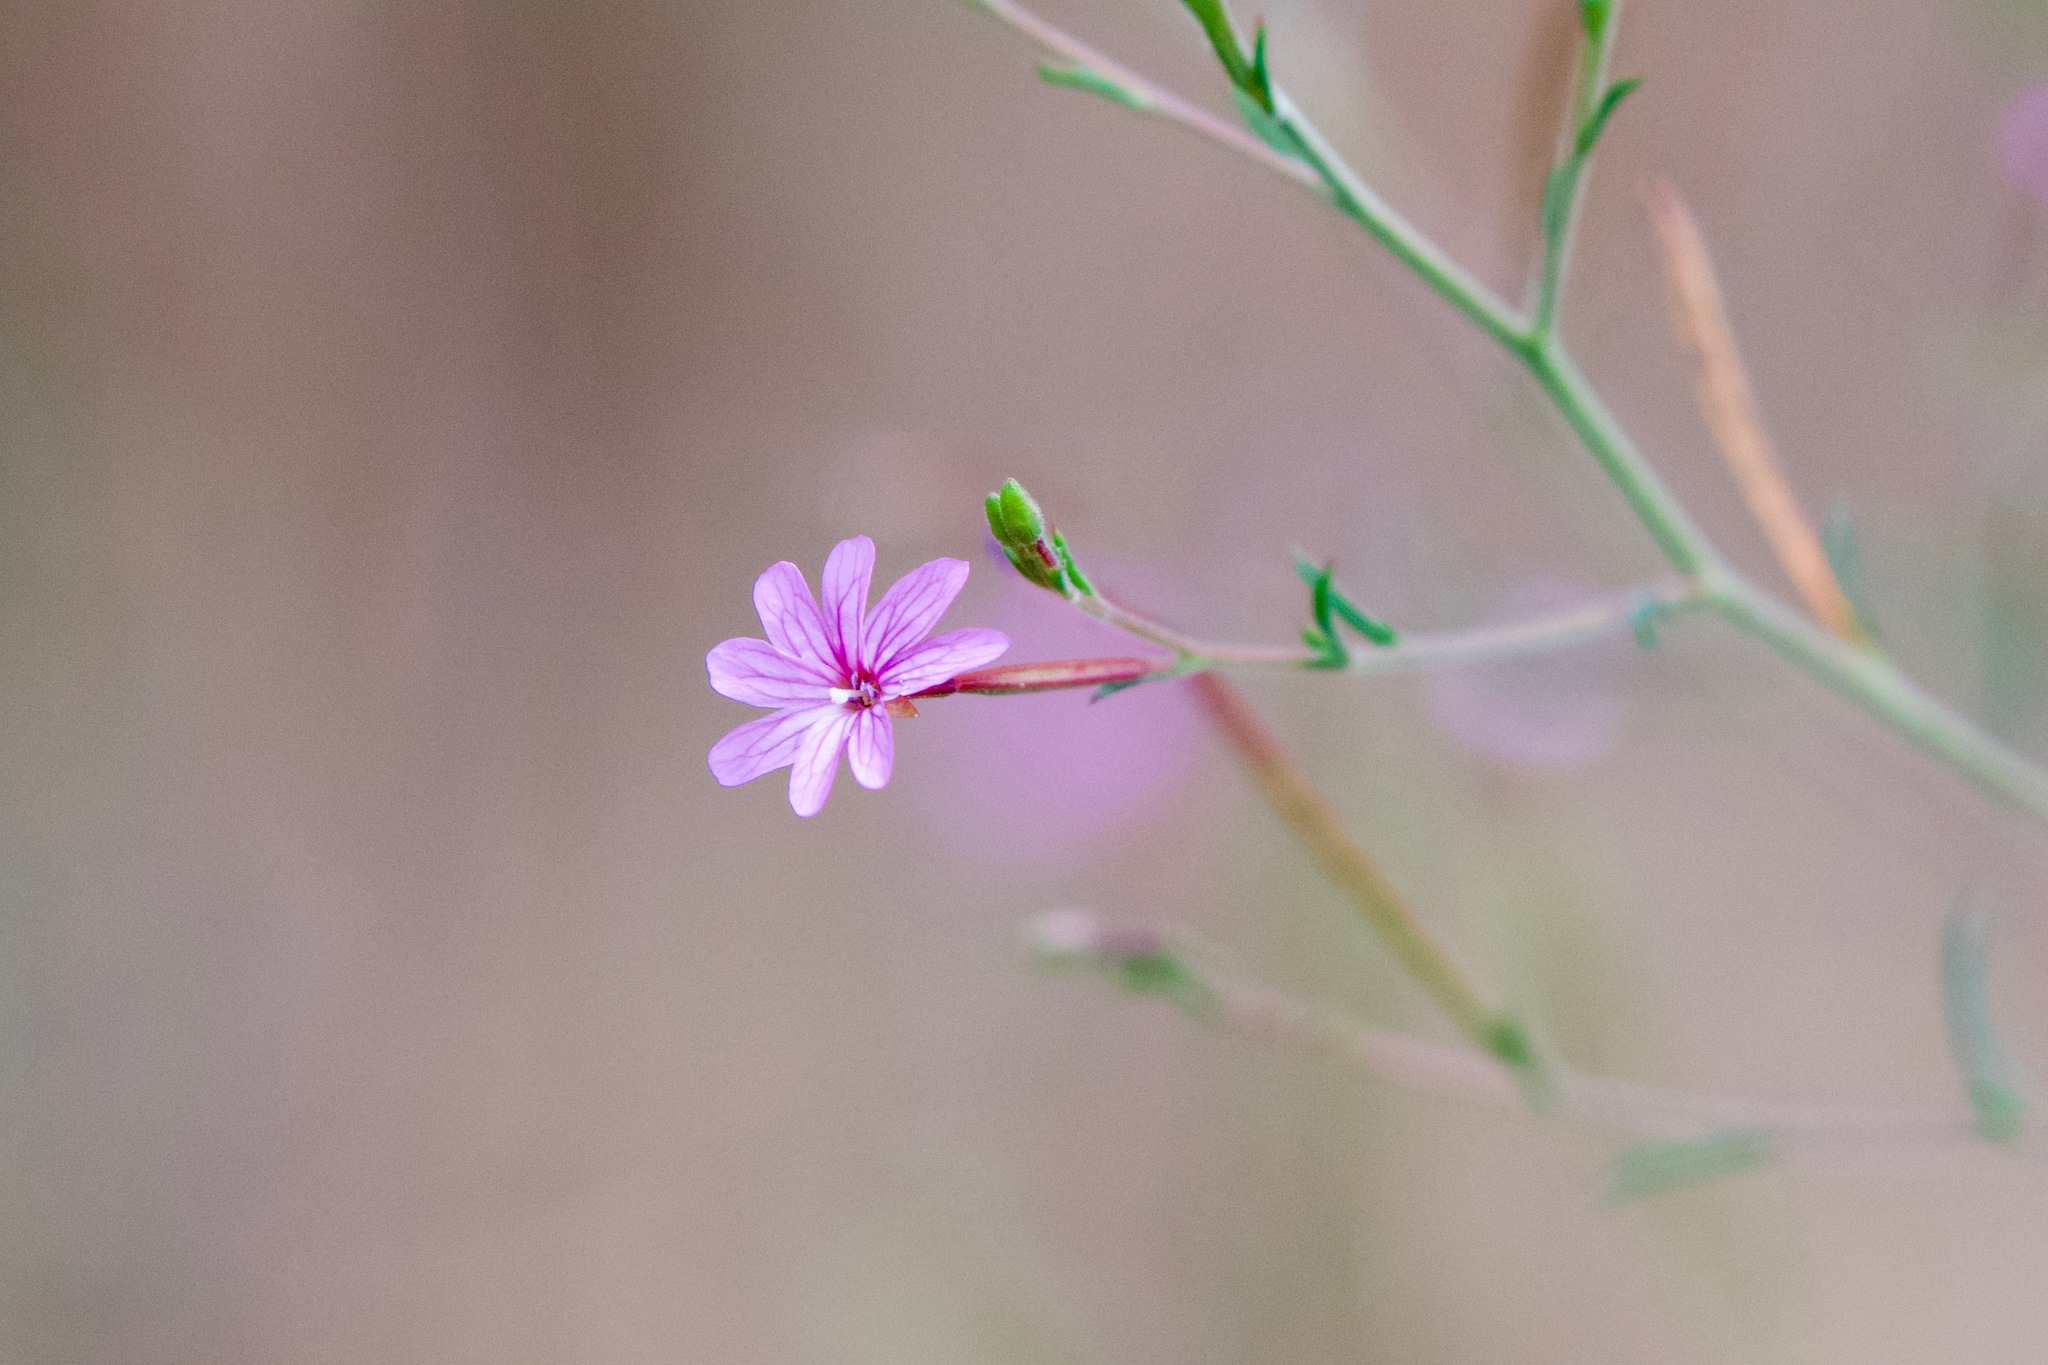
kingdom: Plantae
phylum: Tracheophyta
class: Magnoliopsida
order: Myrtales
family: Onagraceae
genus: Epilobium
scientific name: Epilobium brachycarpum
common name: Annual willowherb
